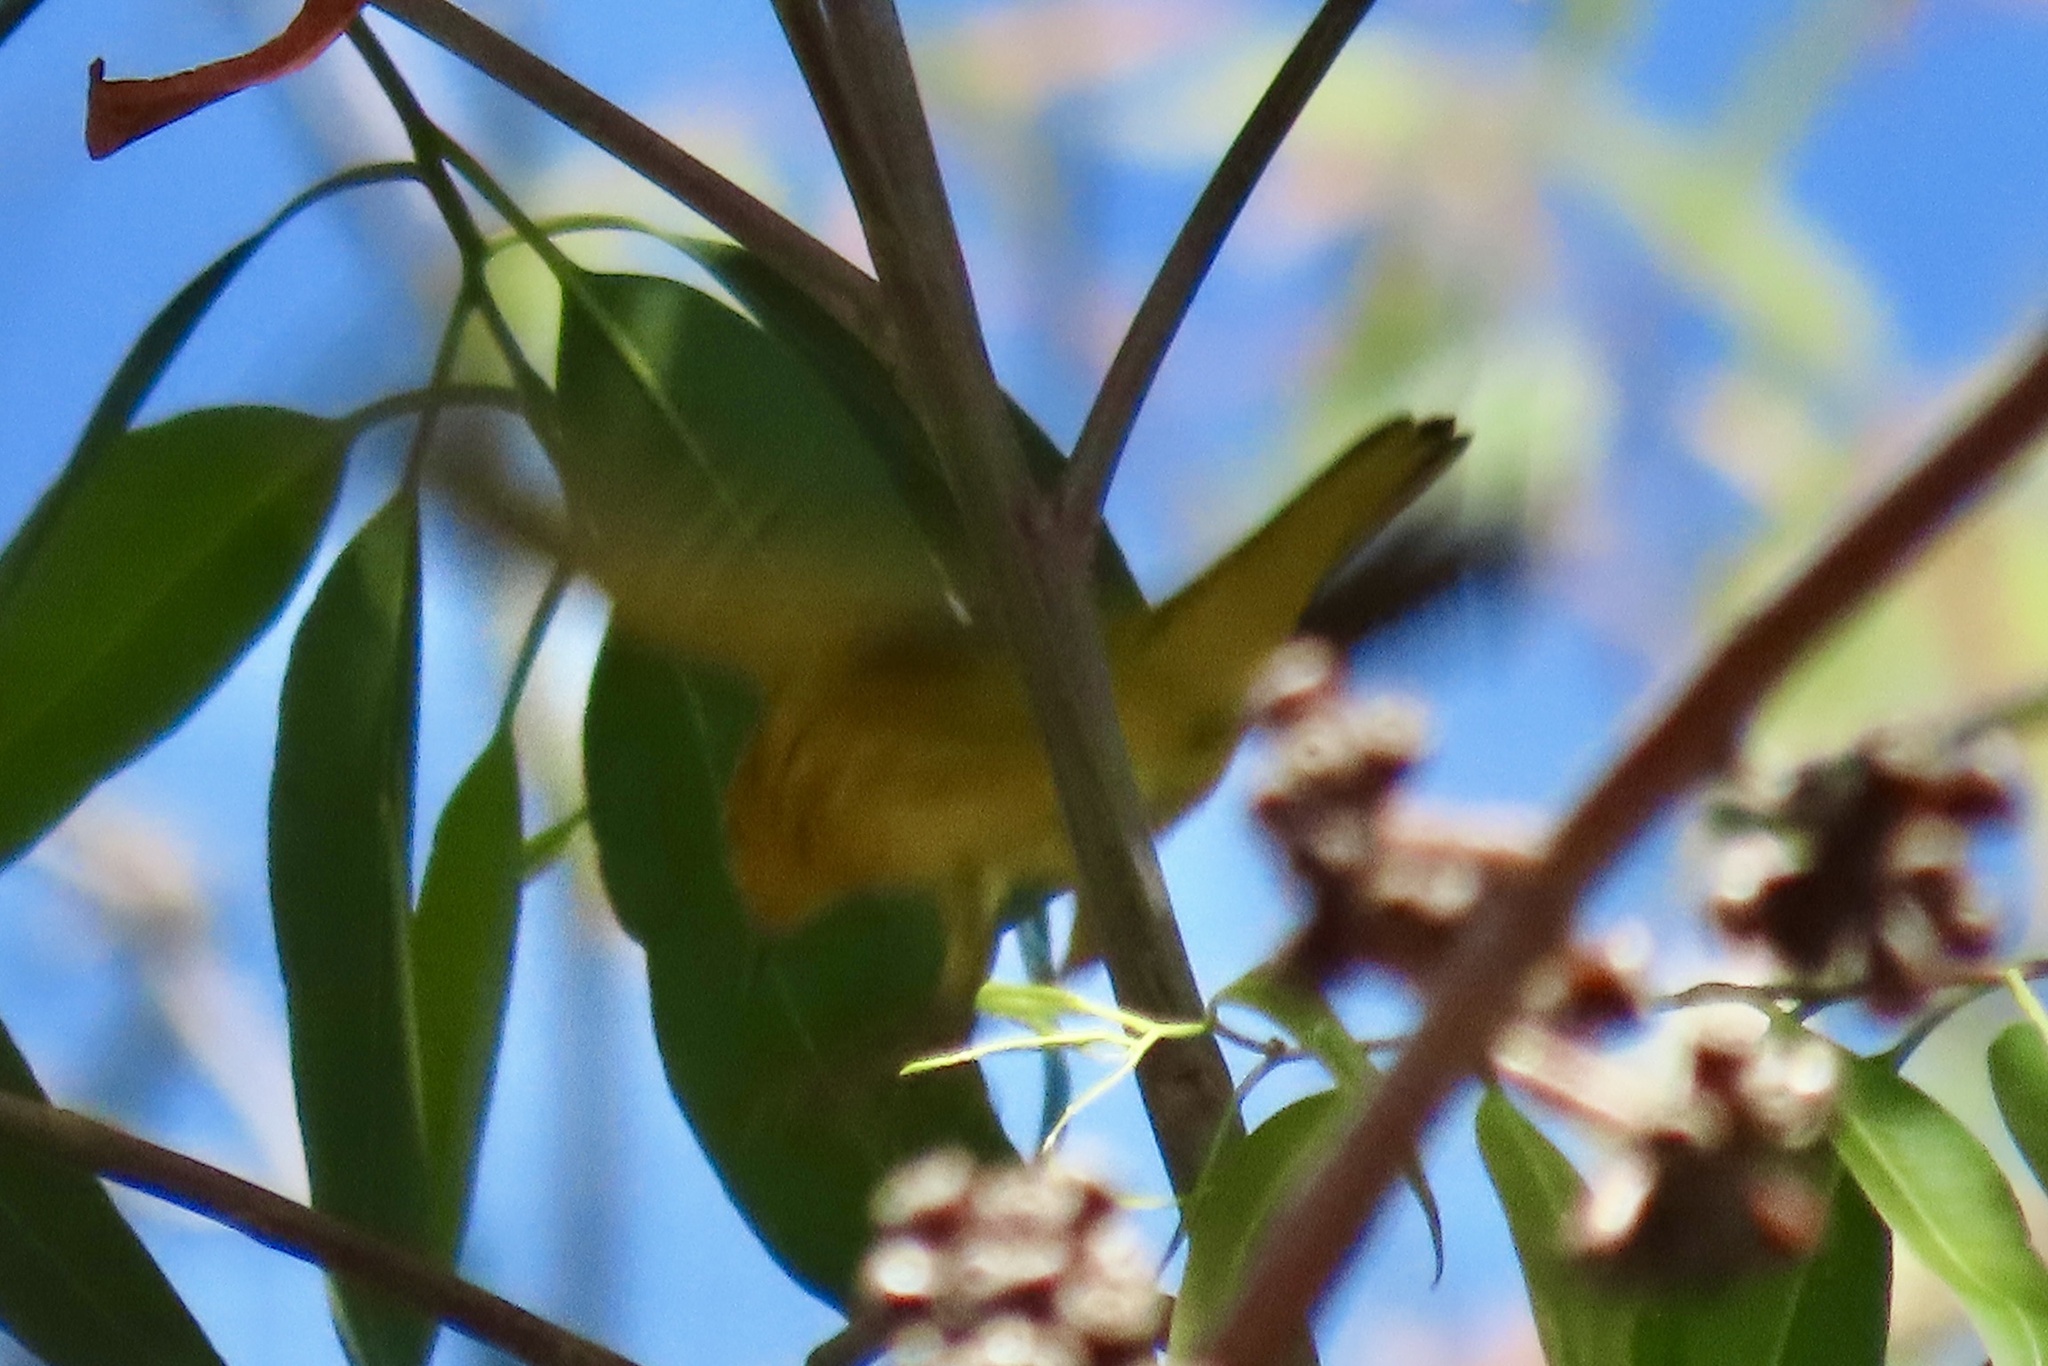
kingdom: Animalia
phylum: Chordata
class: Aves
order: Passeriformes
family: Parulidae
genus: Setophaga
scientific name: Setophaga petechia
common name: Yellow warbler
